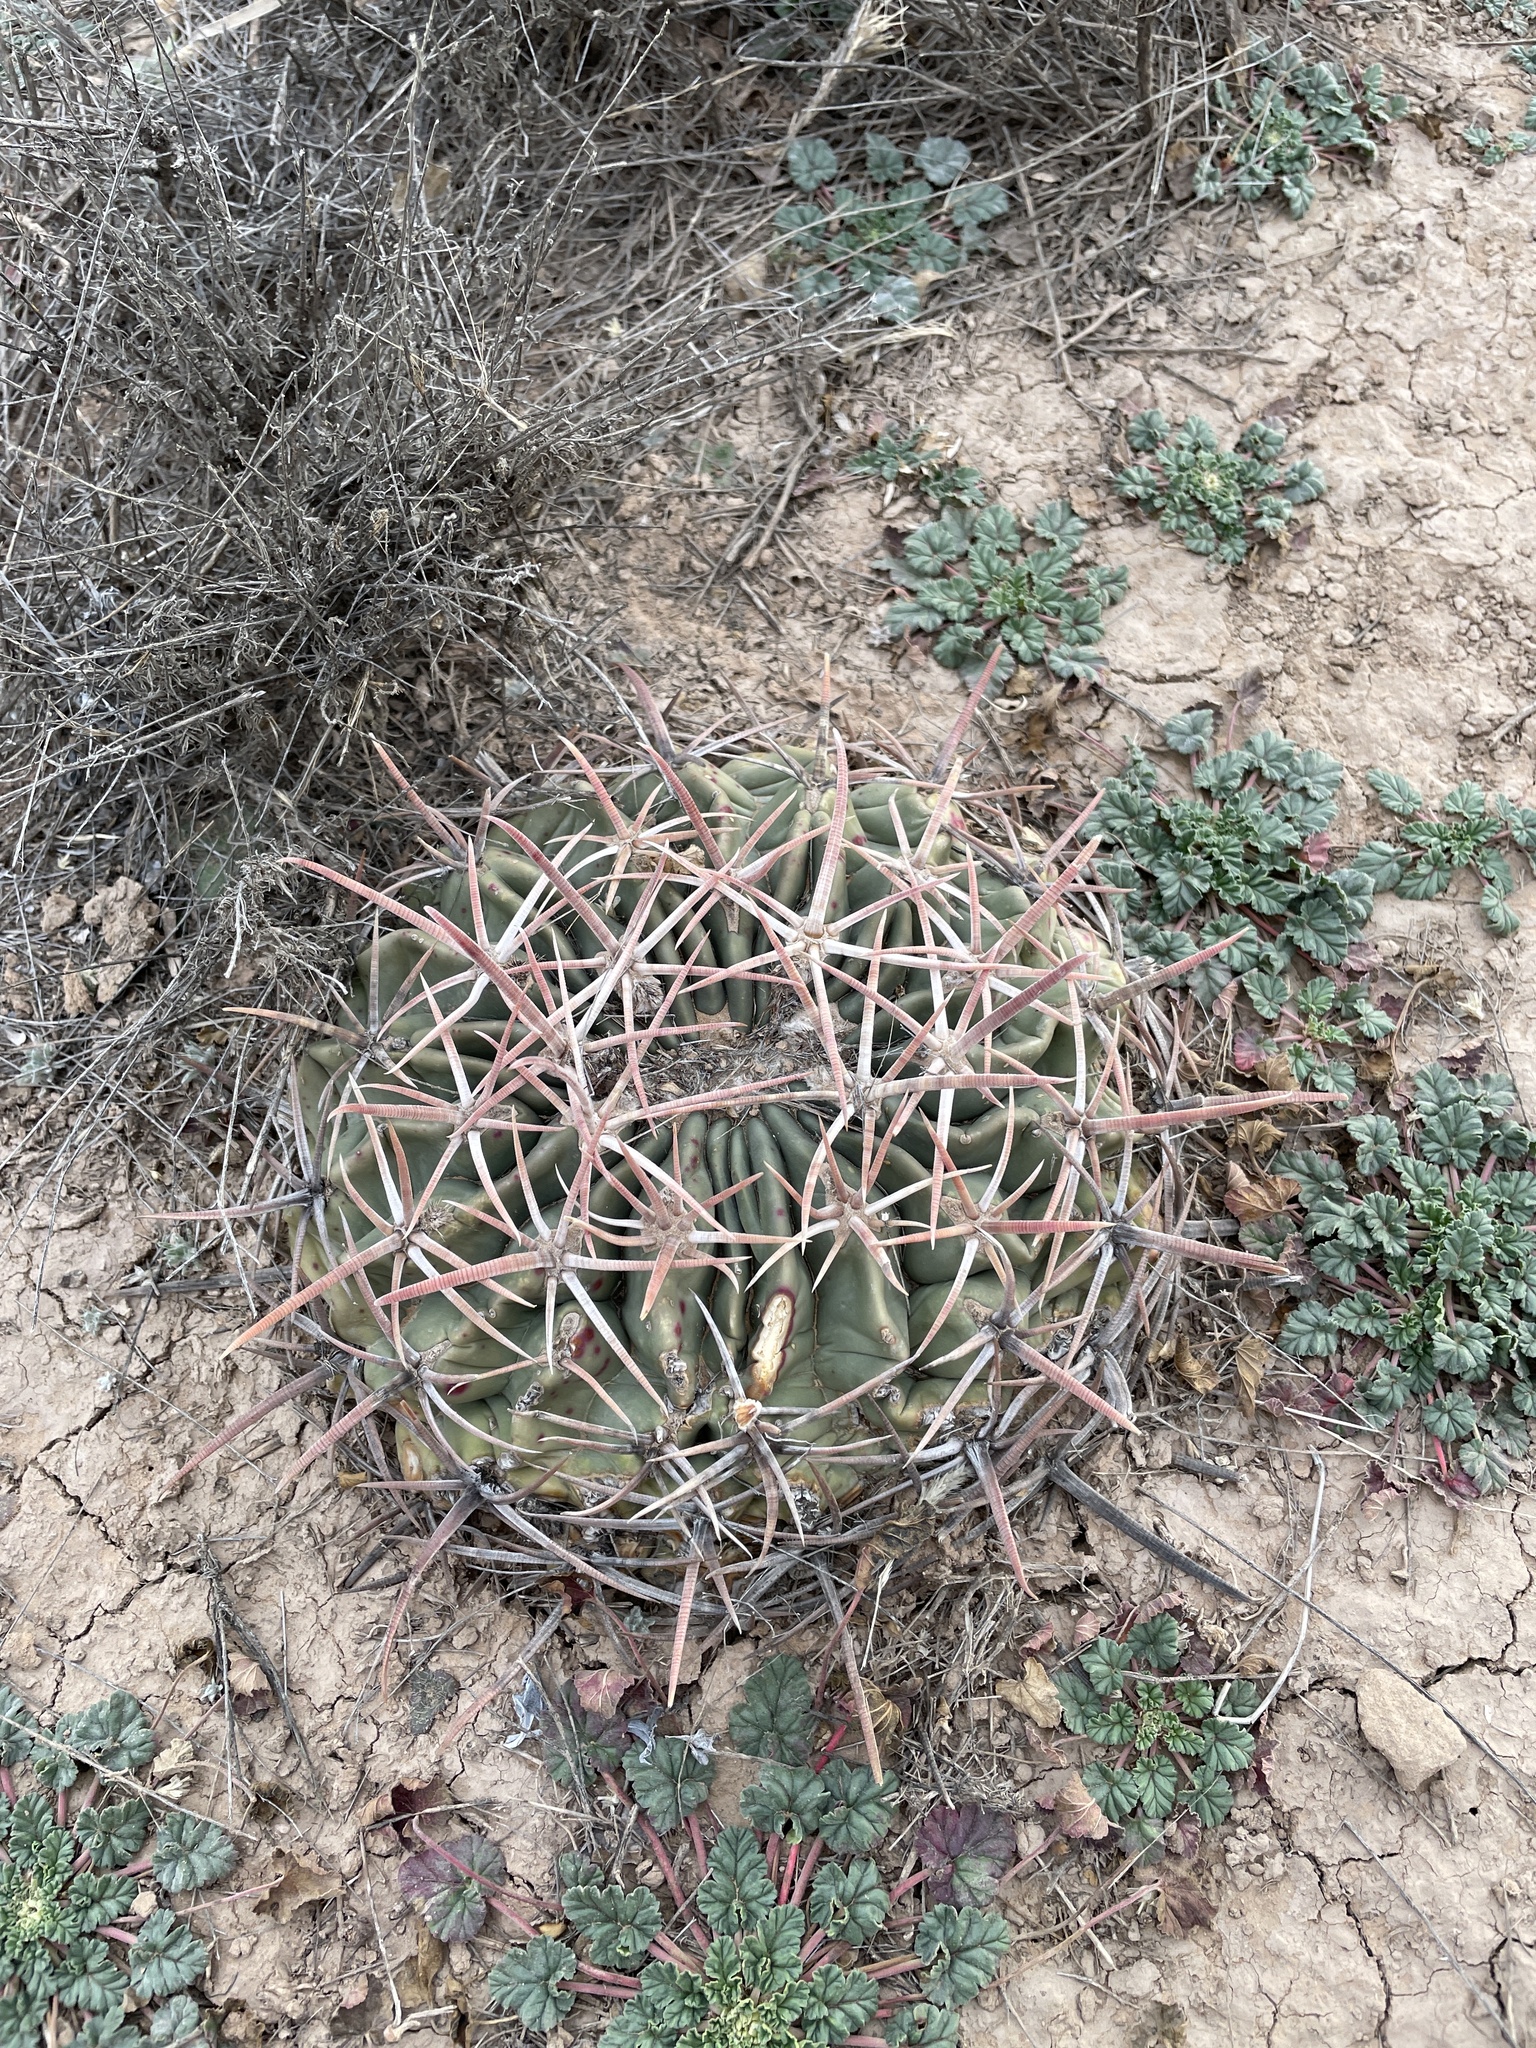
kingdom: Plantae
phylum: Tracheophyta
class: Magnoliopsida
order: Caryophyllales
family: Cactaceae
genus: Echinocactus
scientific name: Echinocactus texensis
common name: Devil's pincushion
